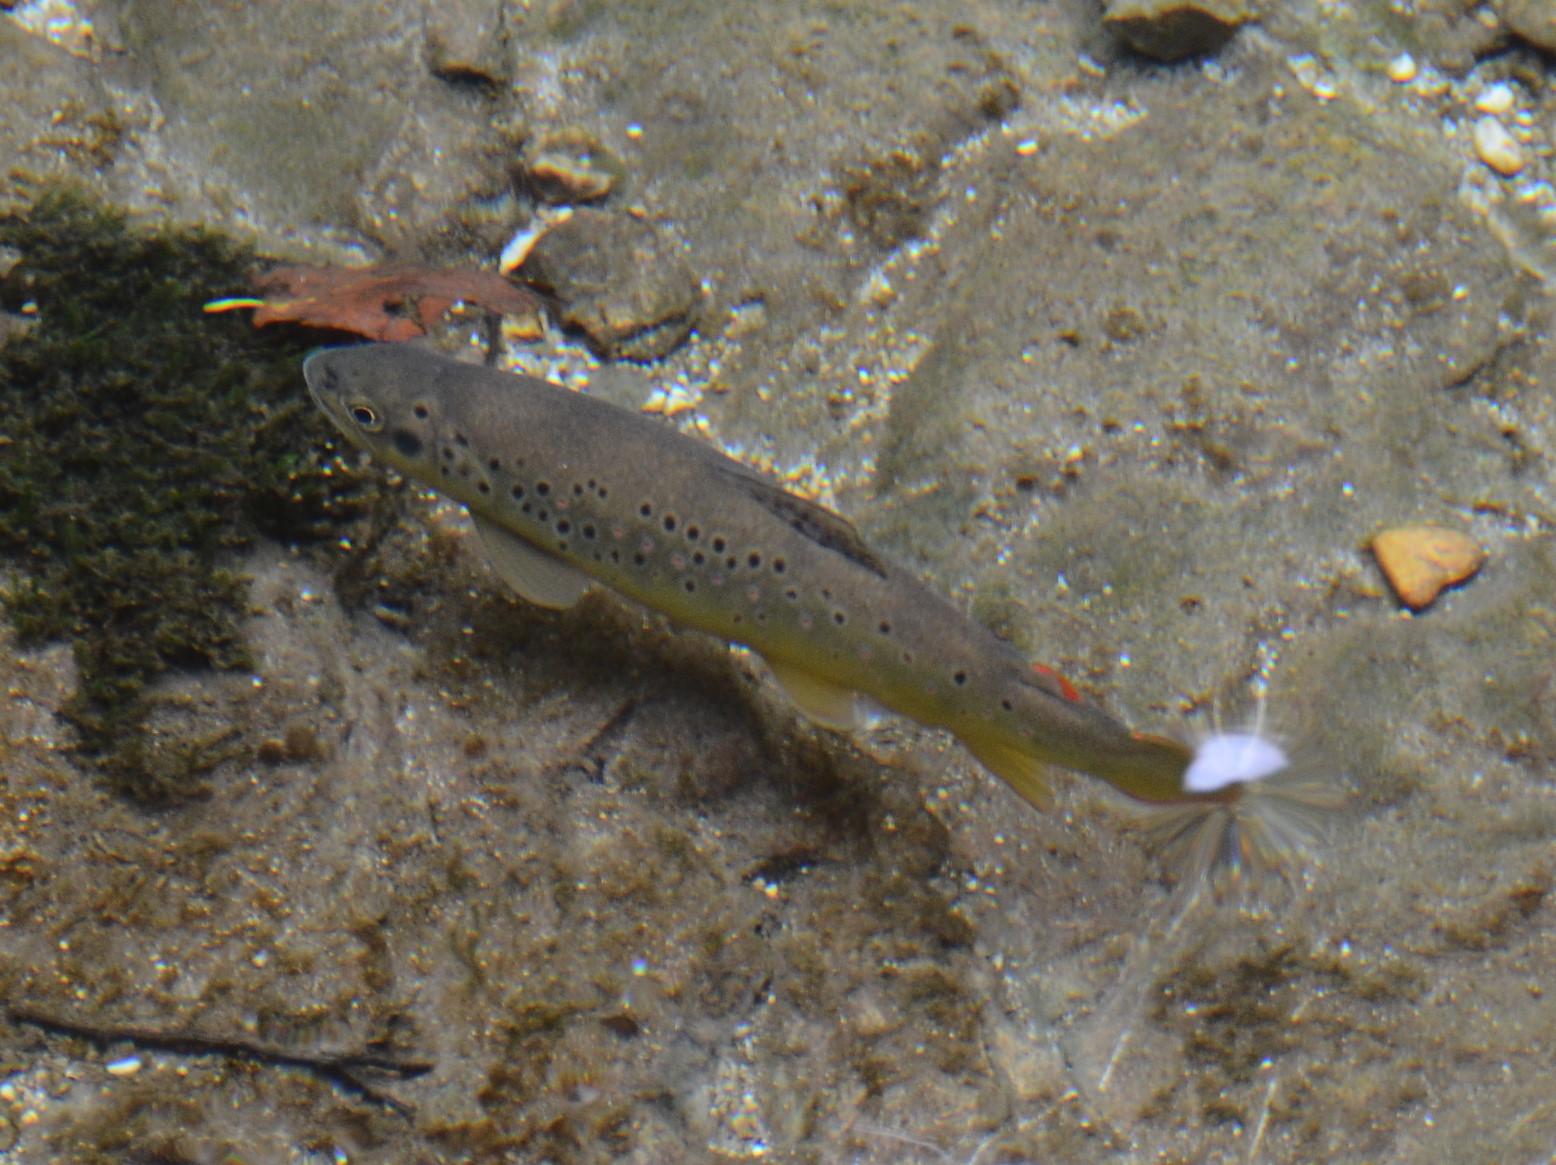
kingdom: Animalia
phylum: Chordata
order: Salmoniformes
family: Salmonidae
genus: Salmo
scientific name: Salmo labrax
